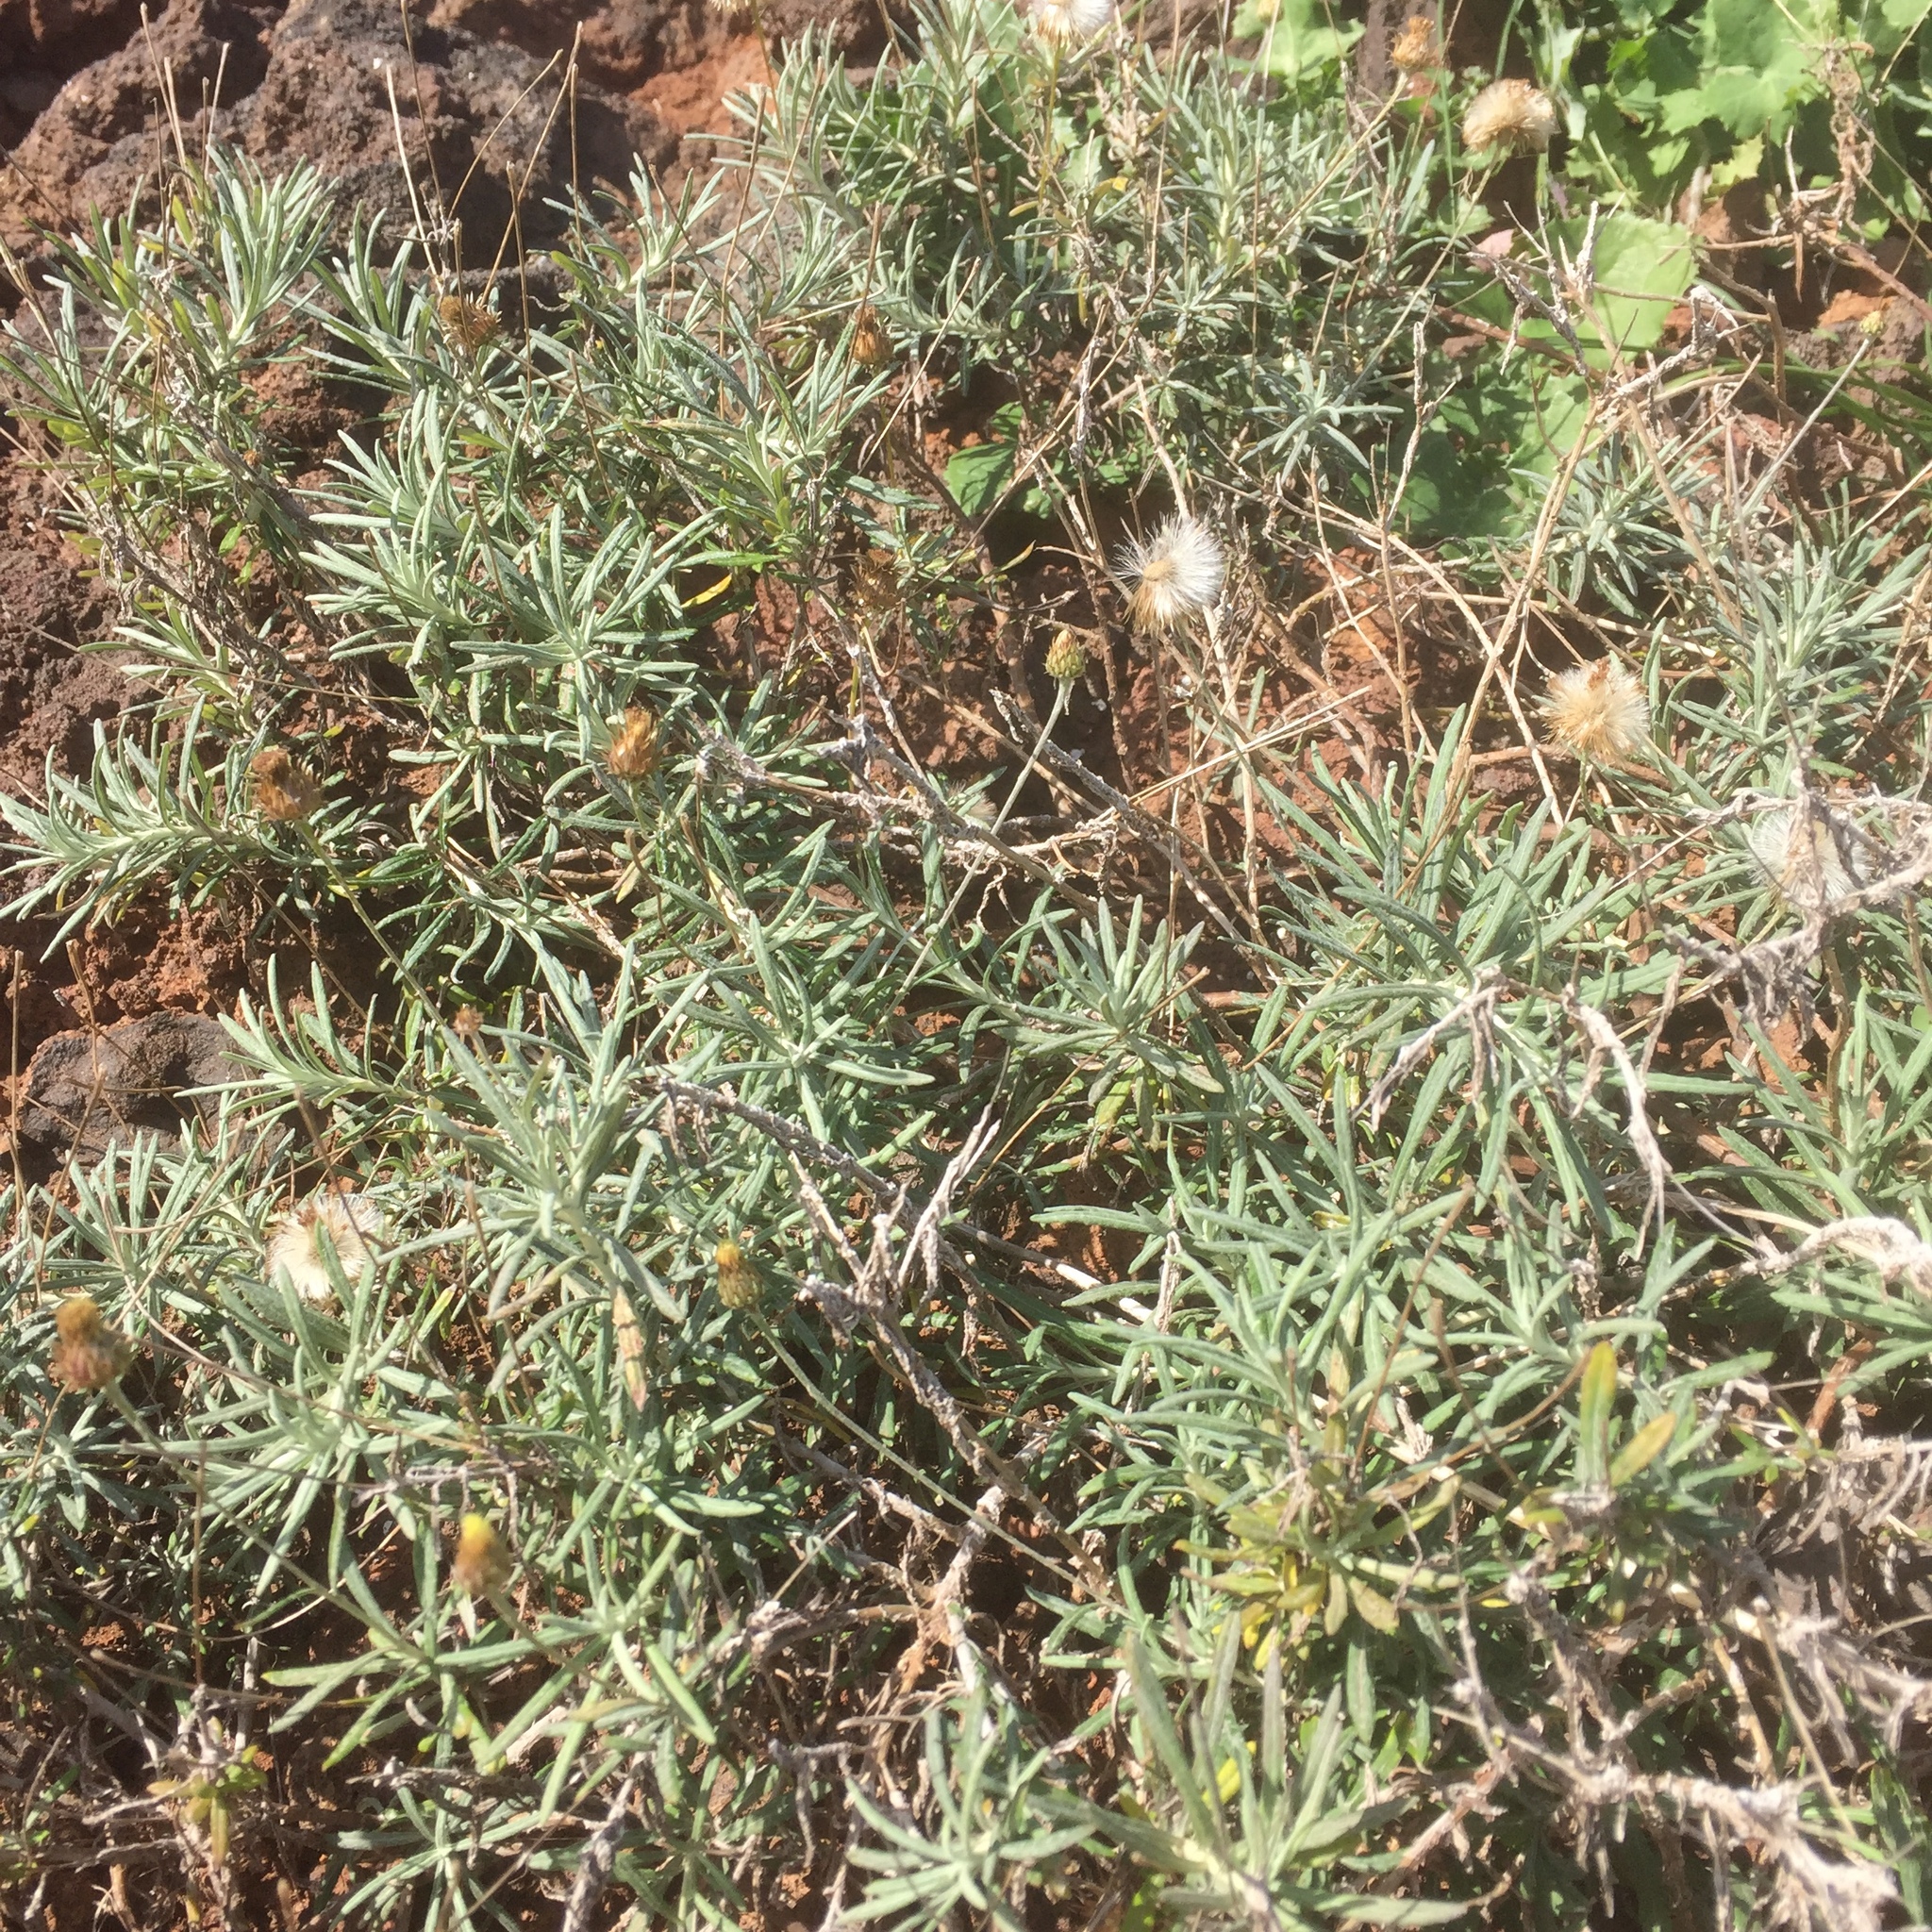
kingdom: Plantae
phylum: Tracheophyta
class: Magnoliopsida
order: Asterales
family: Asteraceae
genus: Phagnalon
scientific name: Phagnalon saxatile
